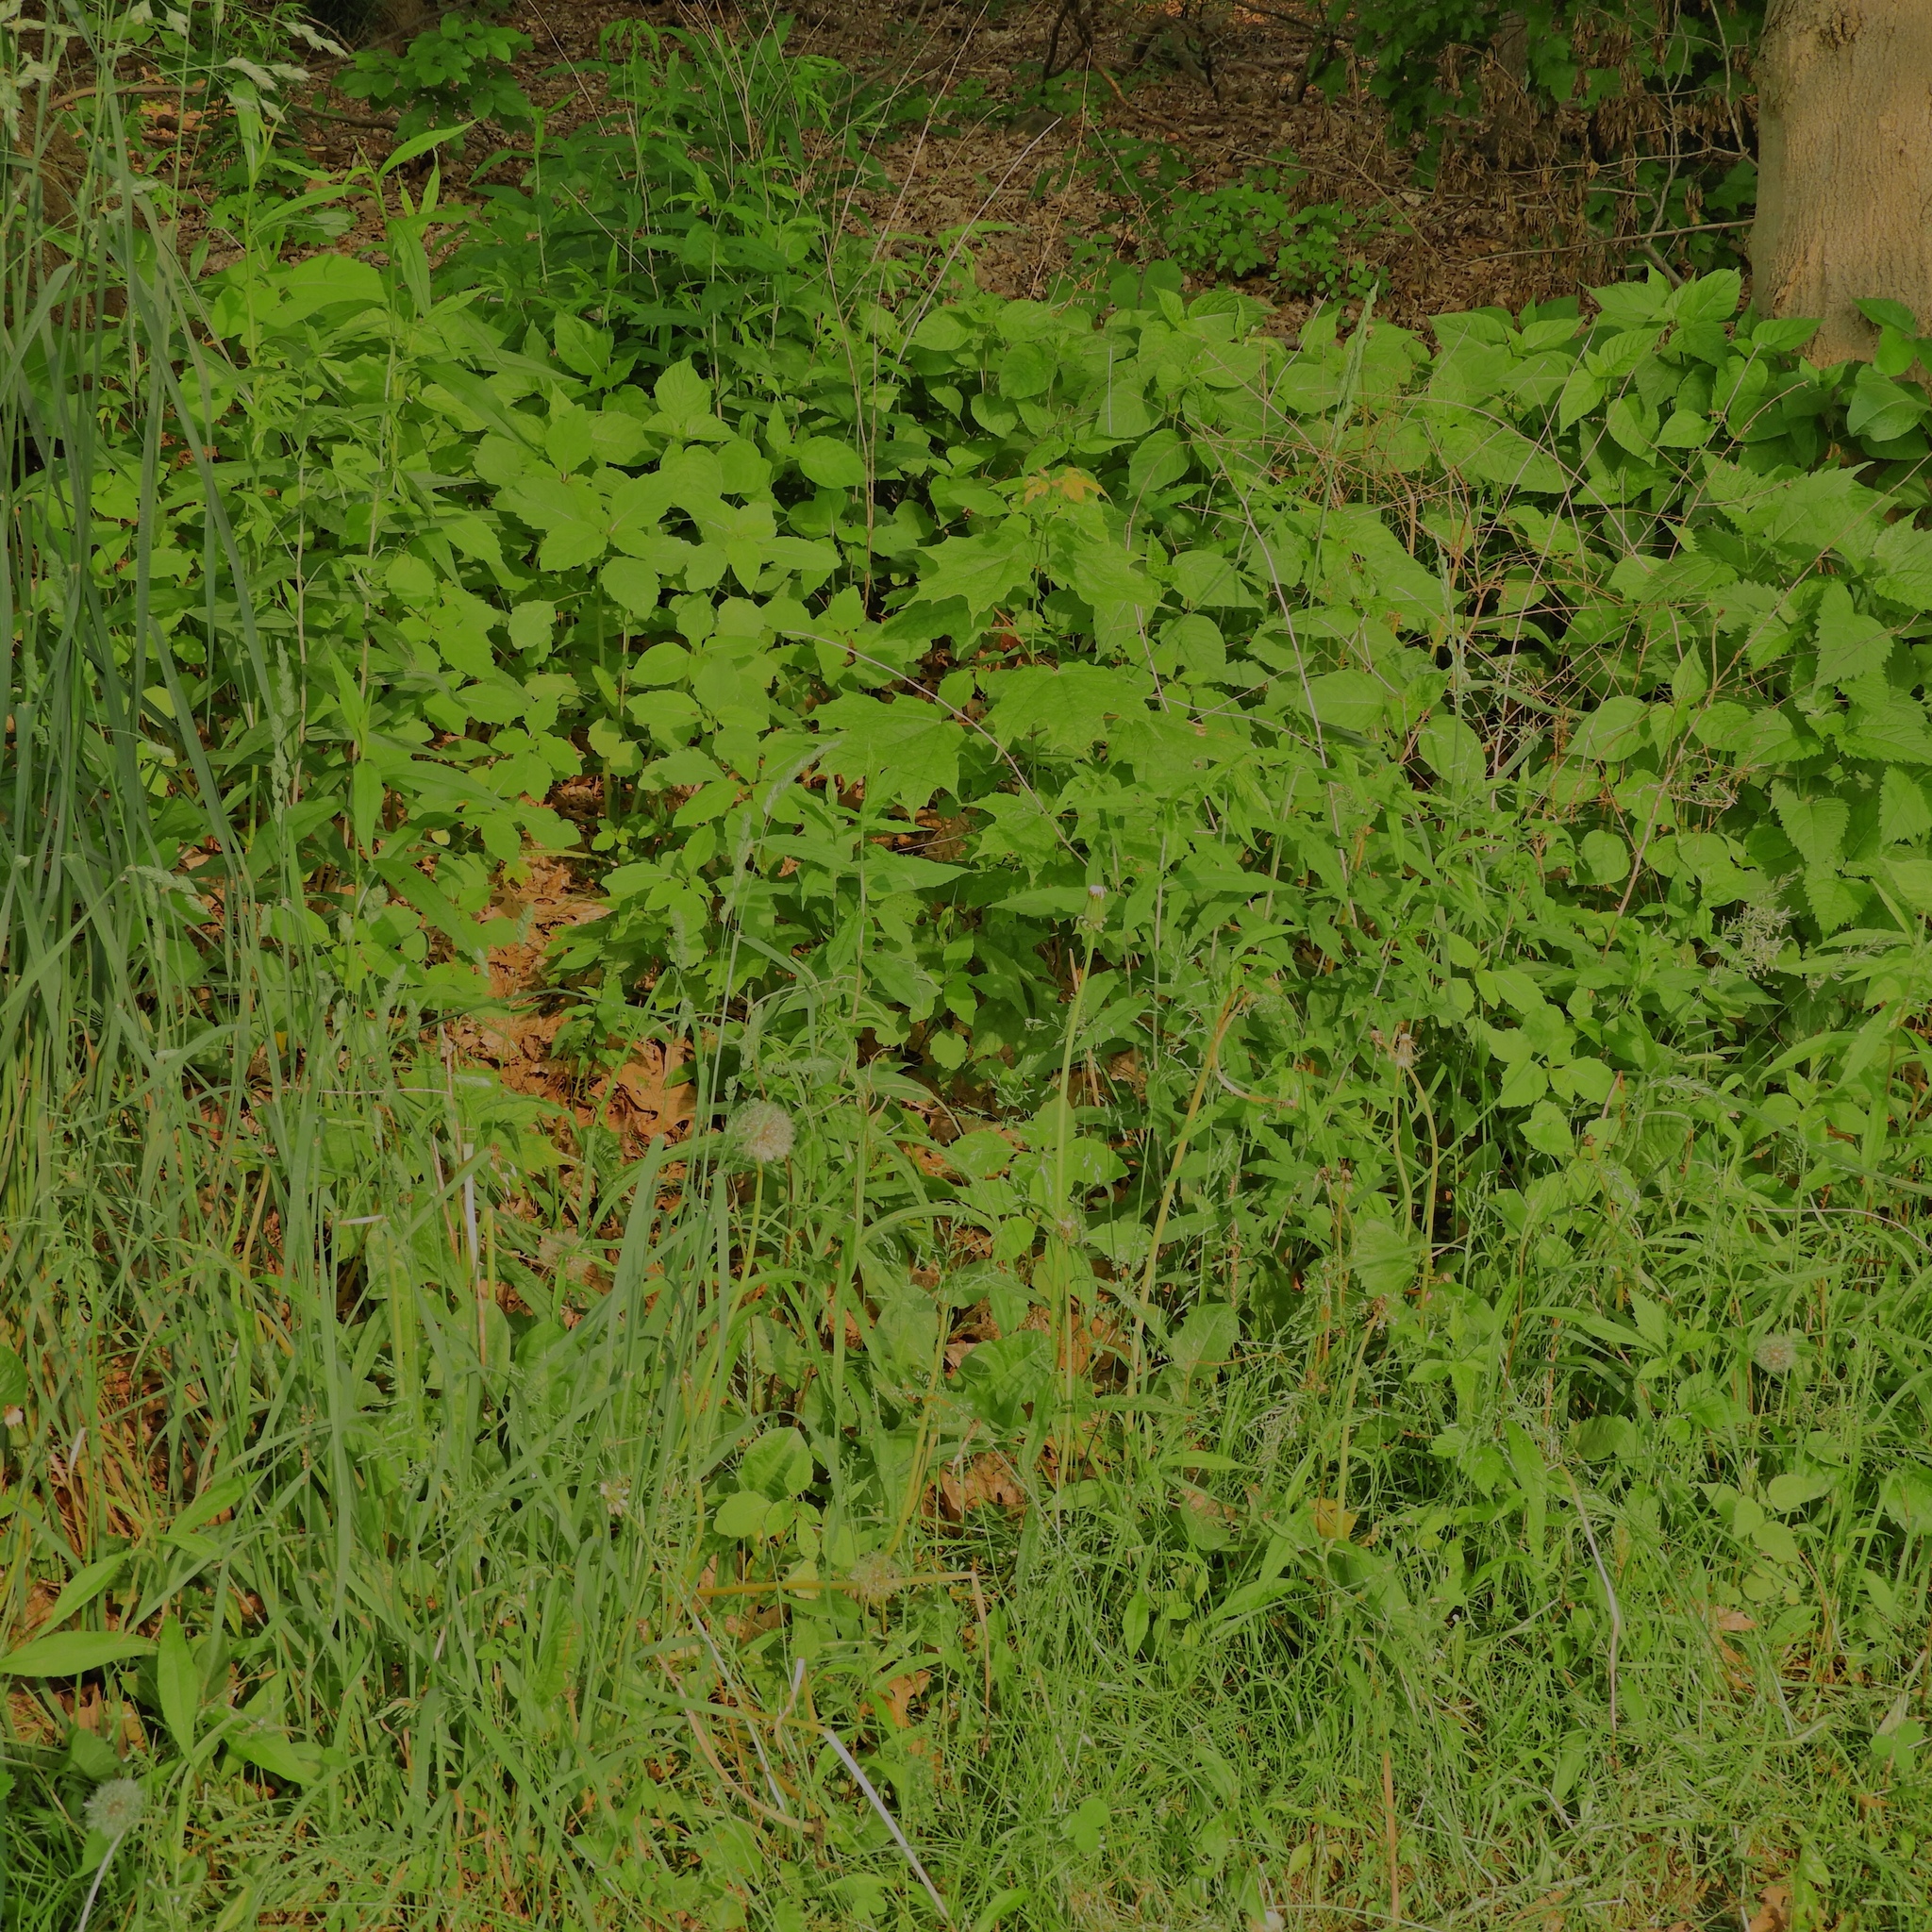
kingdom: Plantae
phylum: Tracheophyta
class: Liliopsida
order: Poales
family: Poaceae
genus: Dactylis
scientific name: Dactylis glomerata
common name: Orchardgrass
